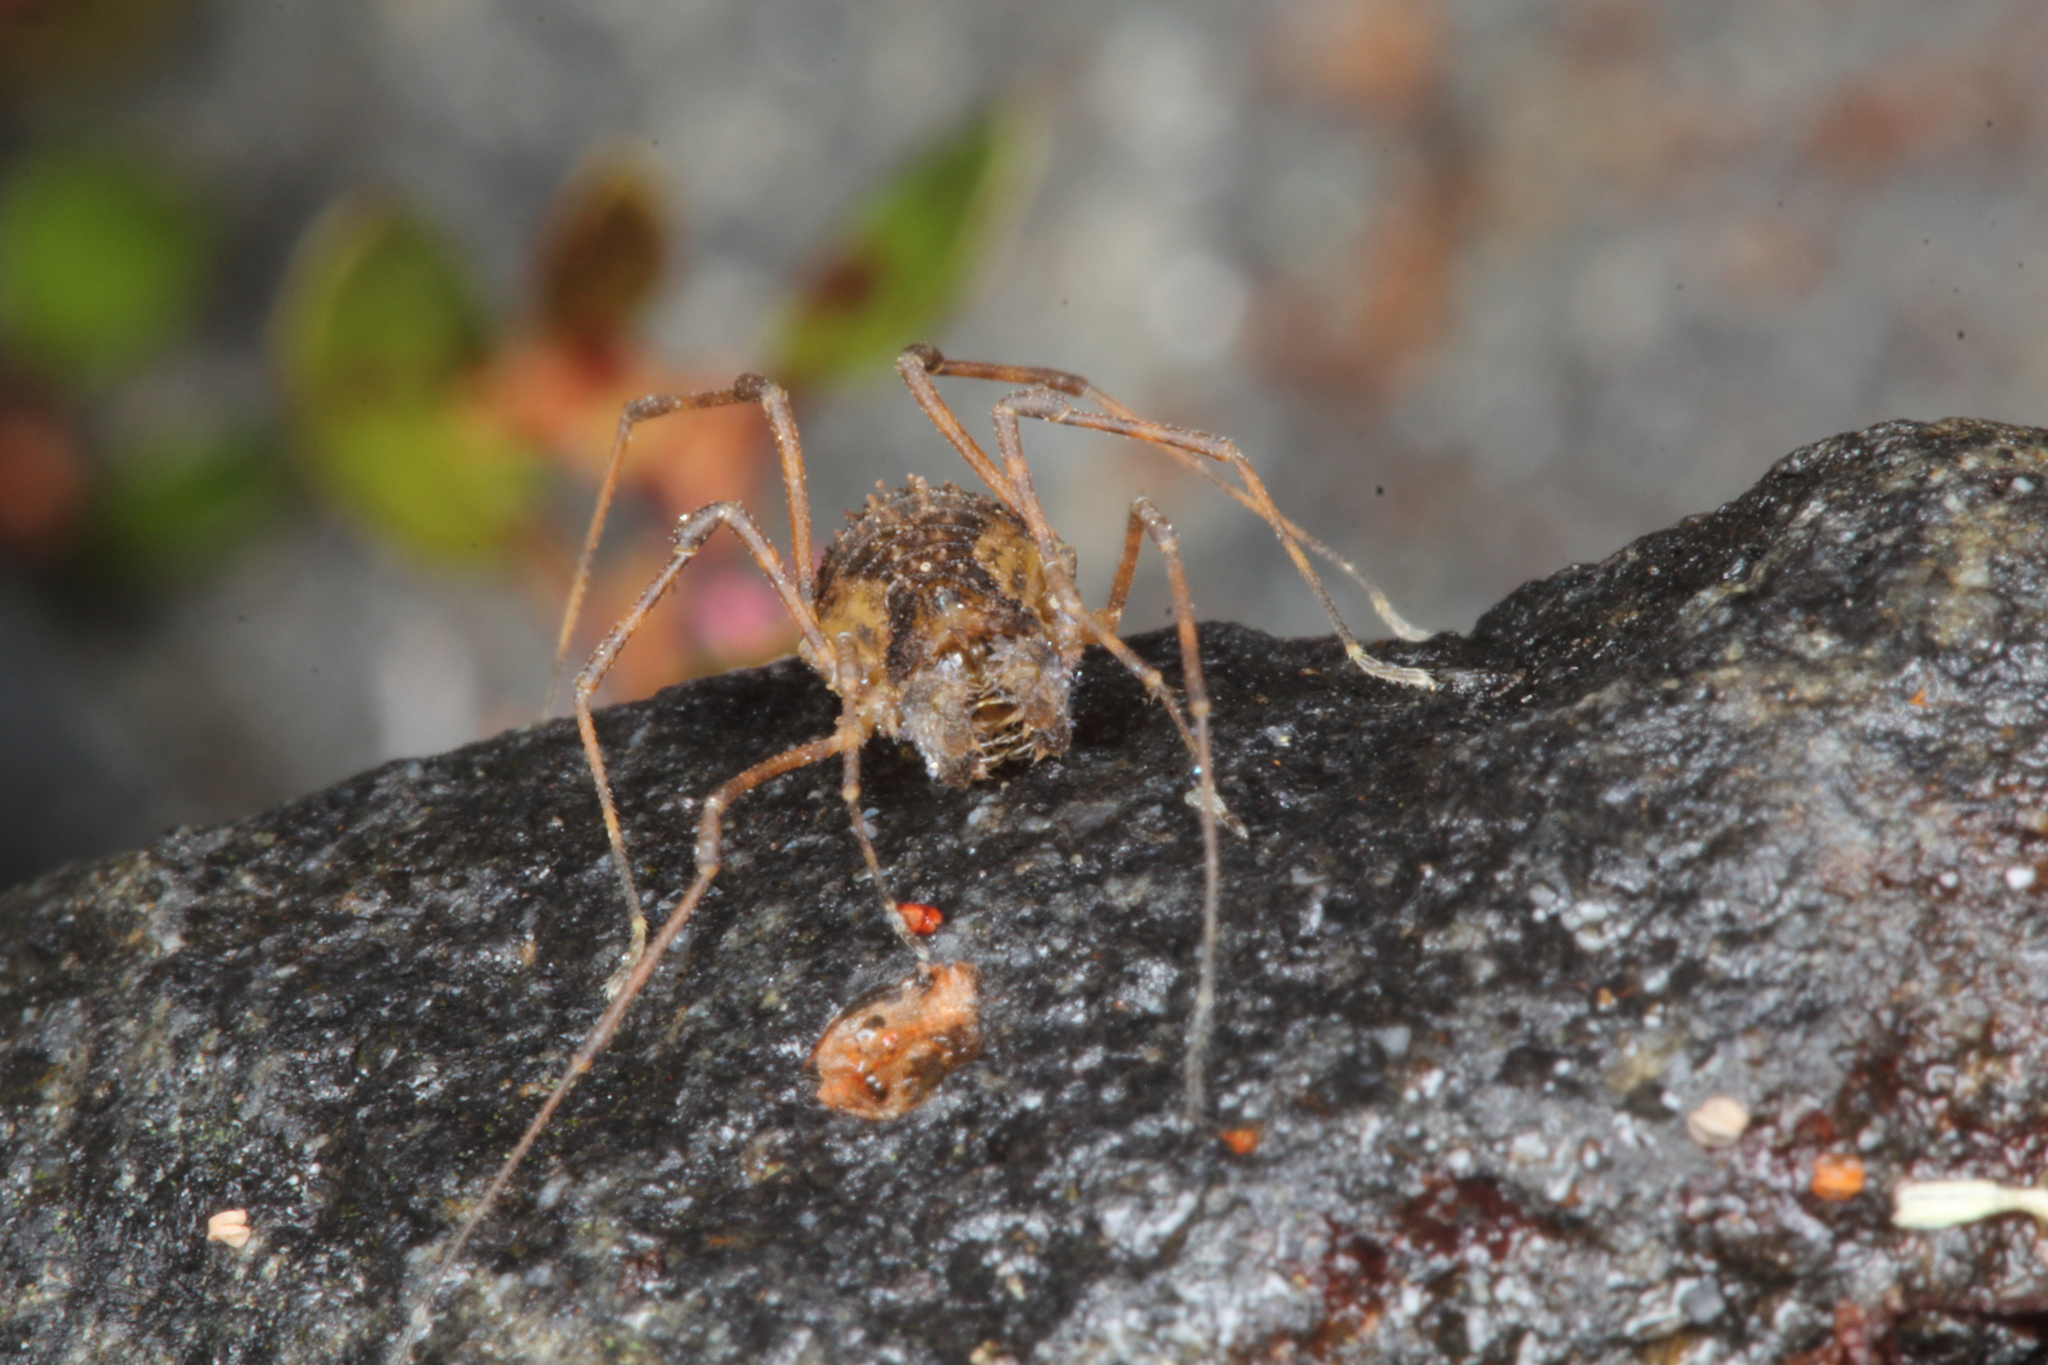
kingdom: Animalia
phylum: Arthropoda
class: Arachnida
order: Opiliones
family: Triaenonychidae
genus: Algidia
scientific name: Algidia interrupta
